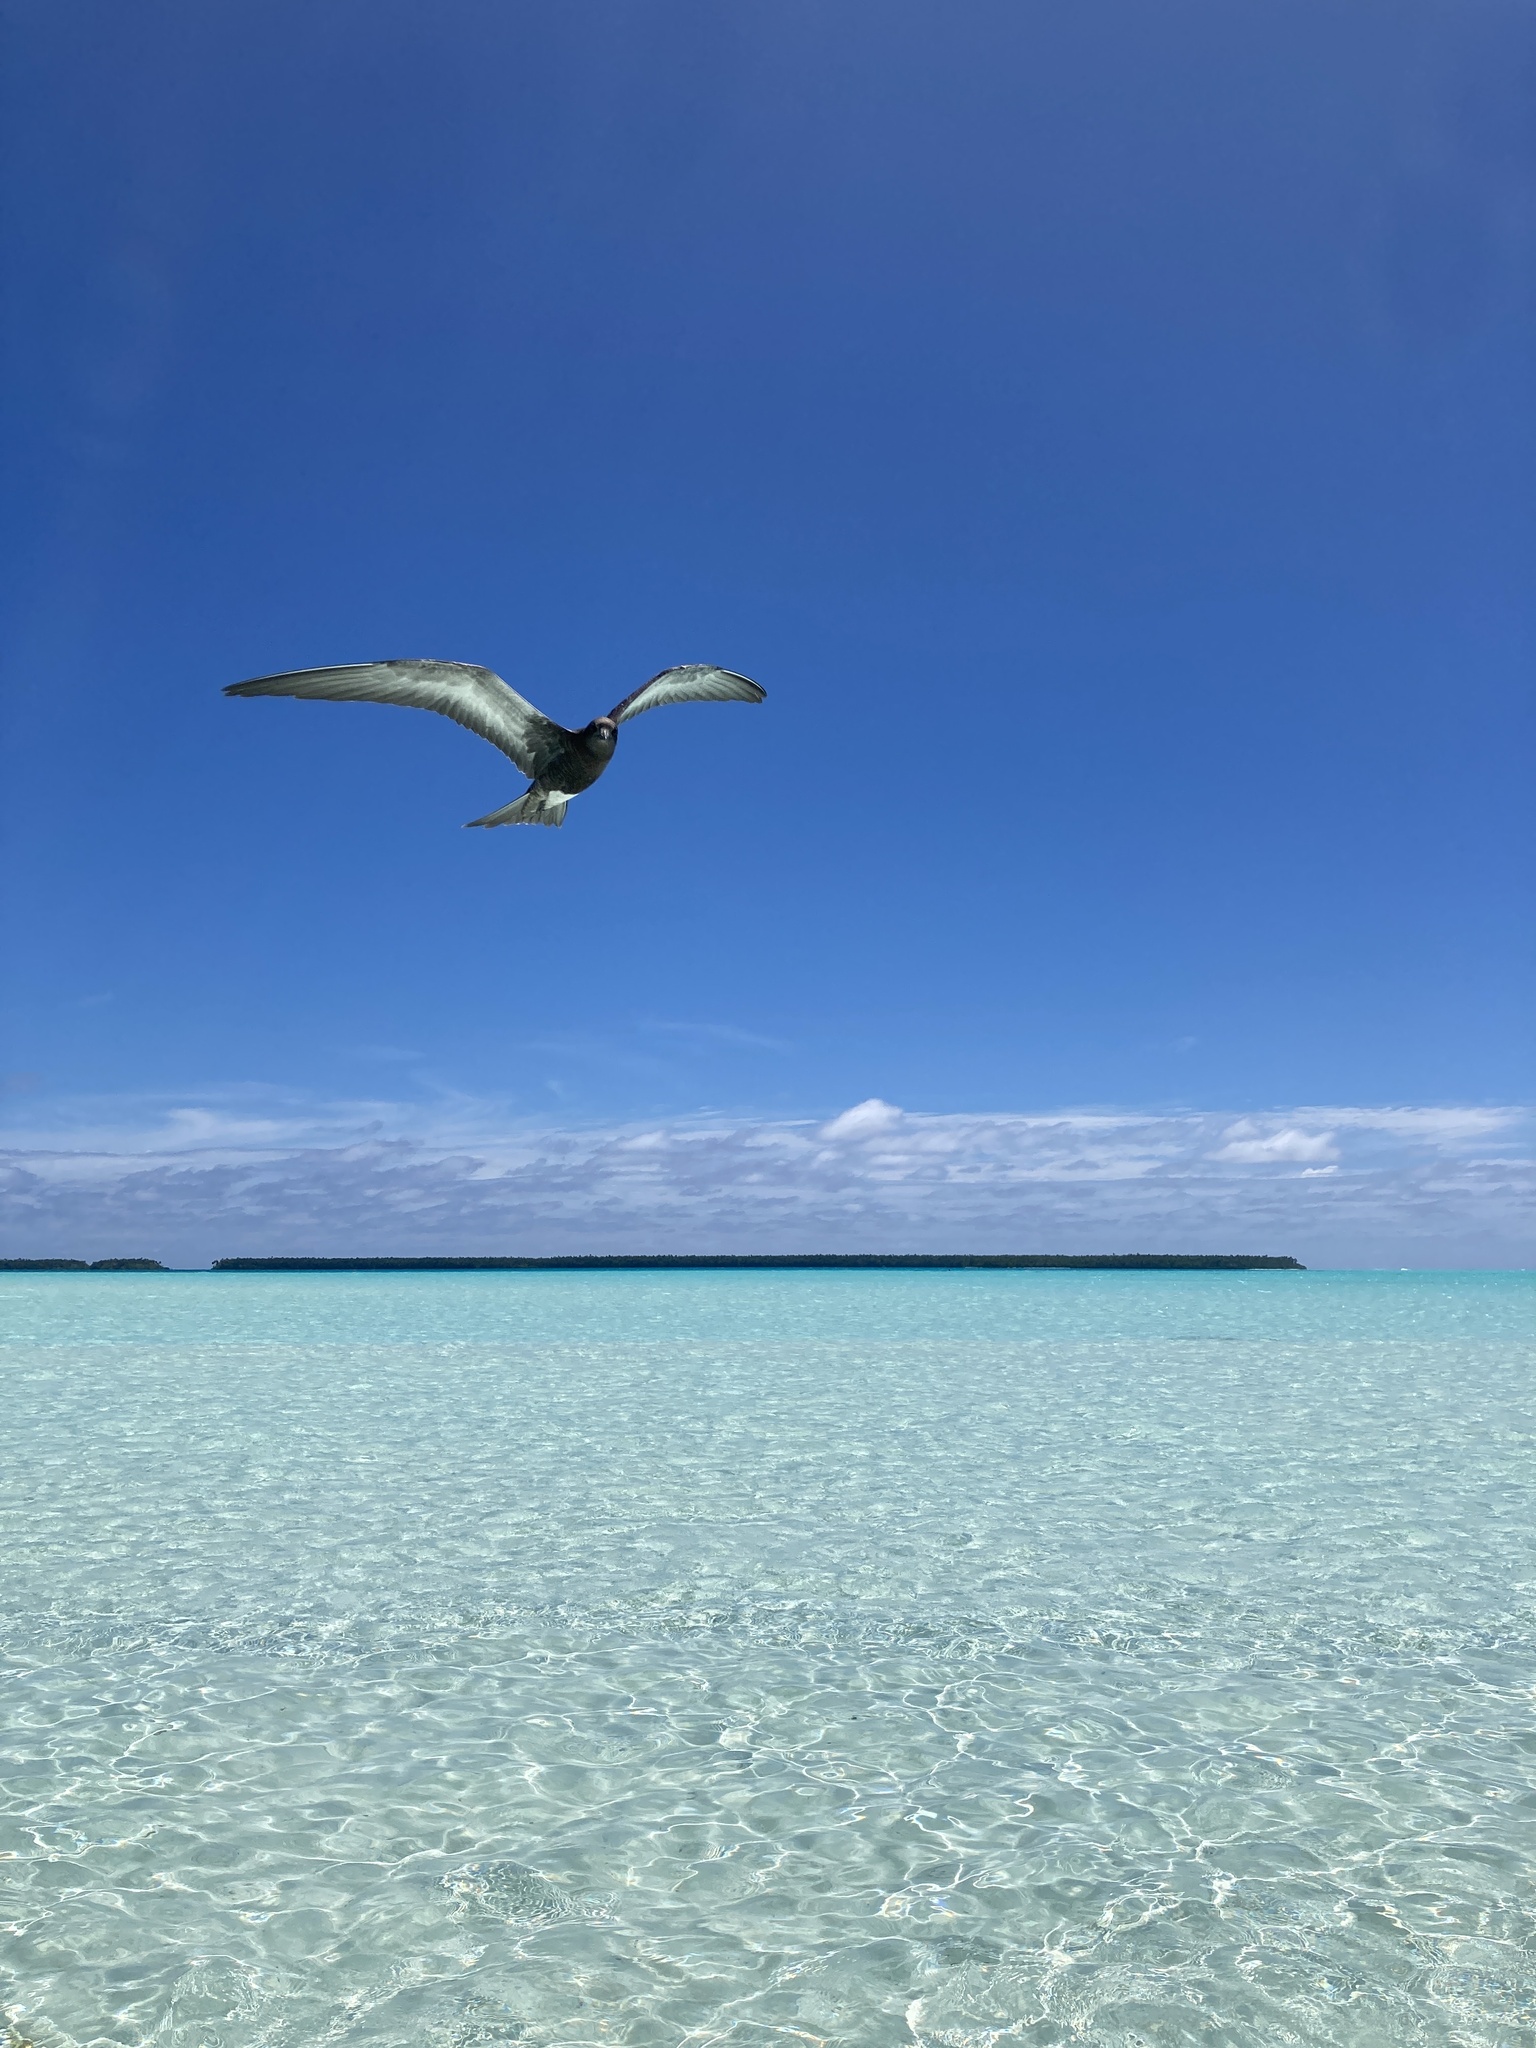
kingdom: Animalia
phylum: Chordata
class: Aves
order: Charadriiformes
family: Laridae
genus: Onychoprion
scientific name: Onychoprion fuscatus
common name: Sooty tern
